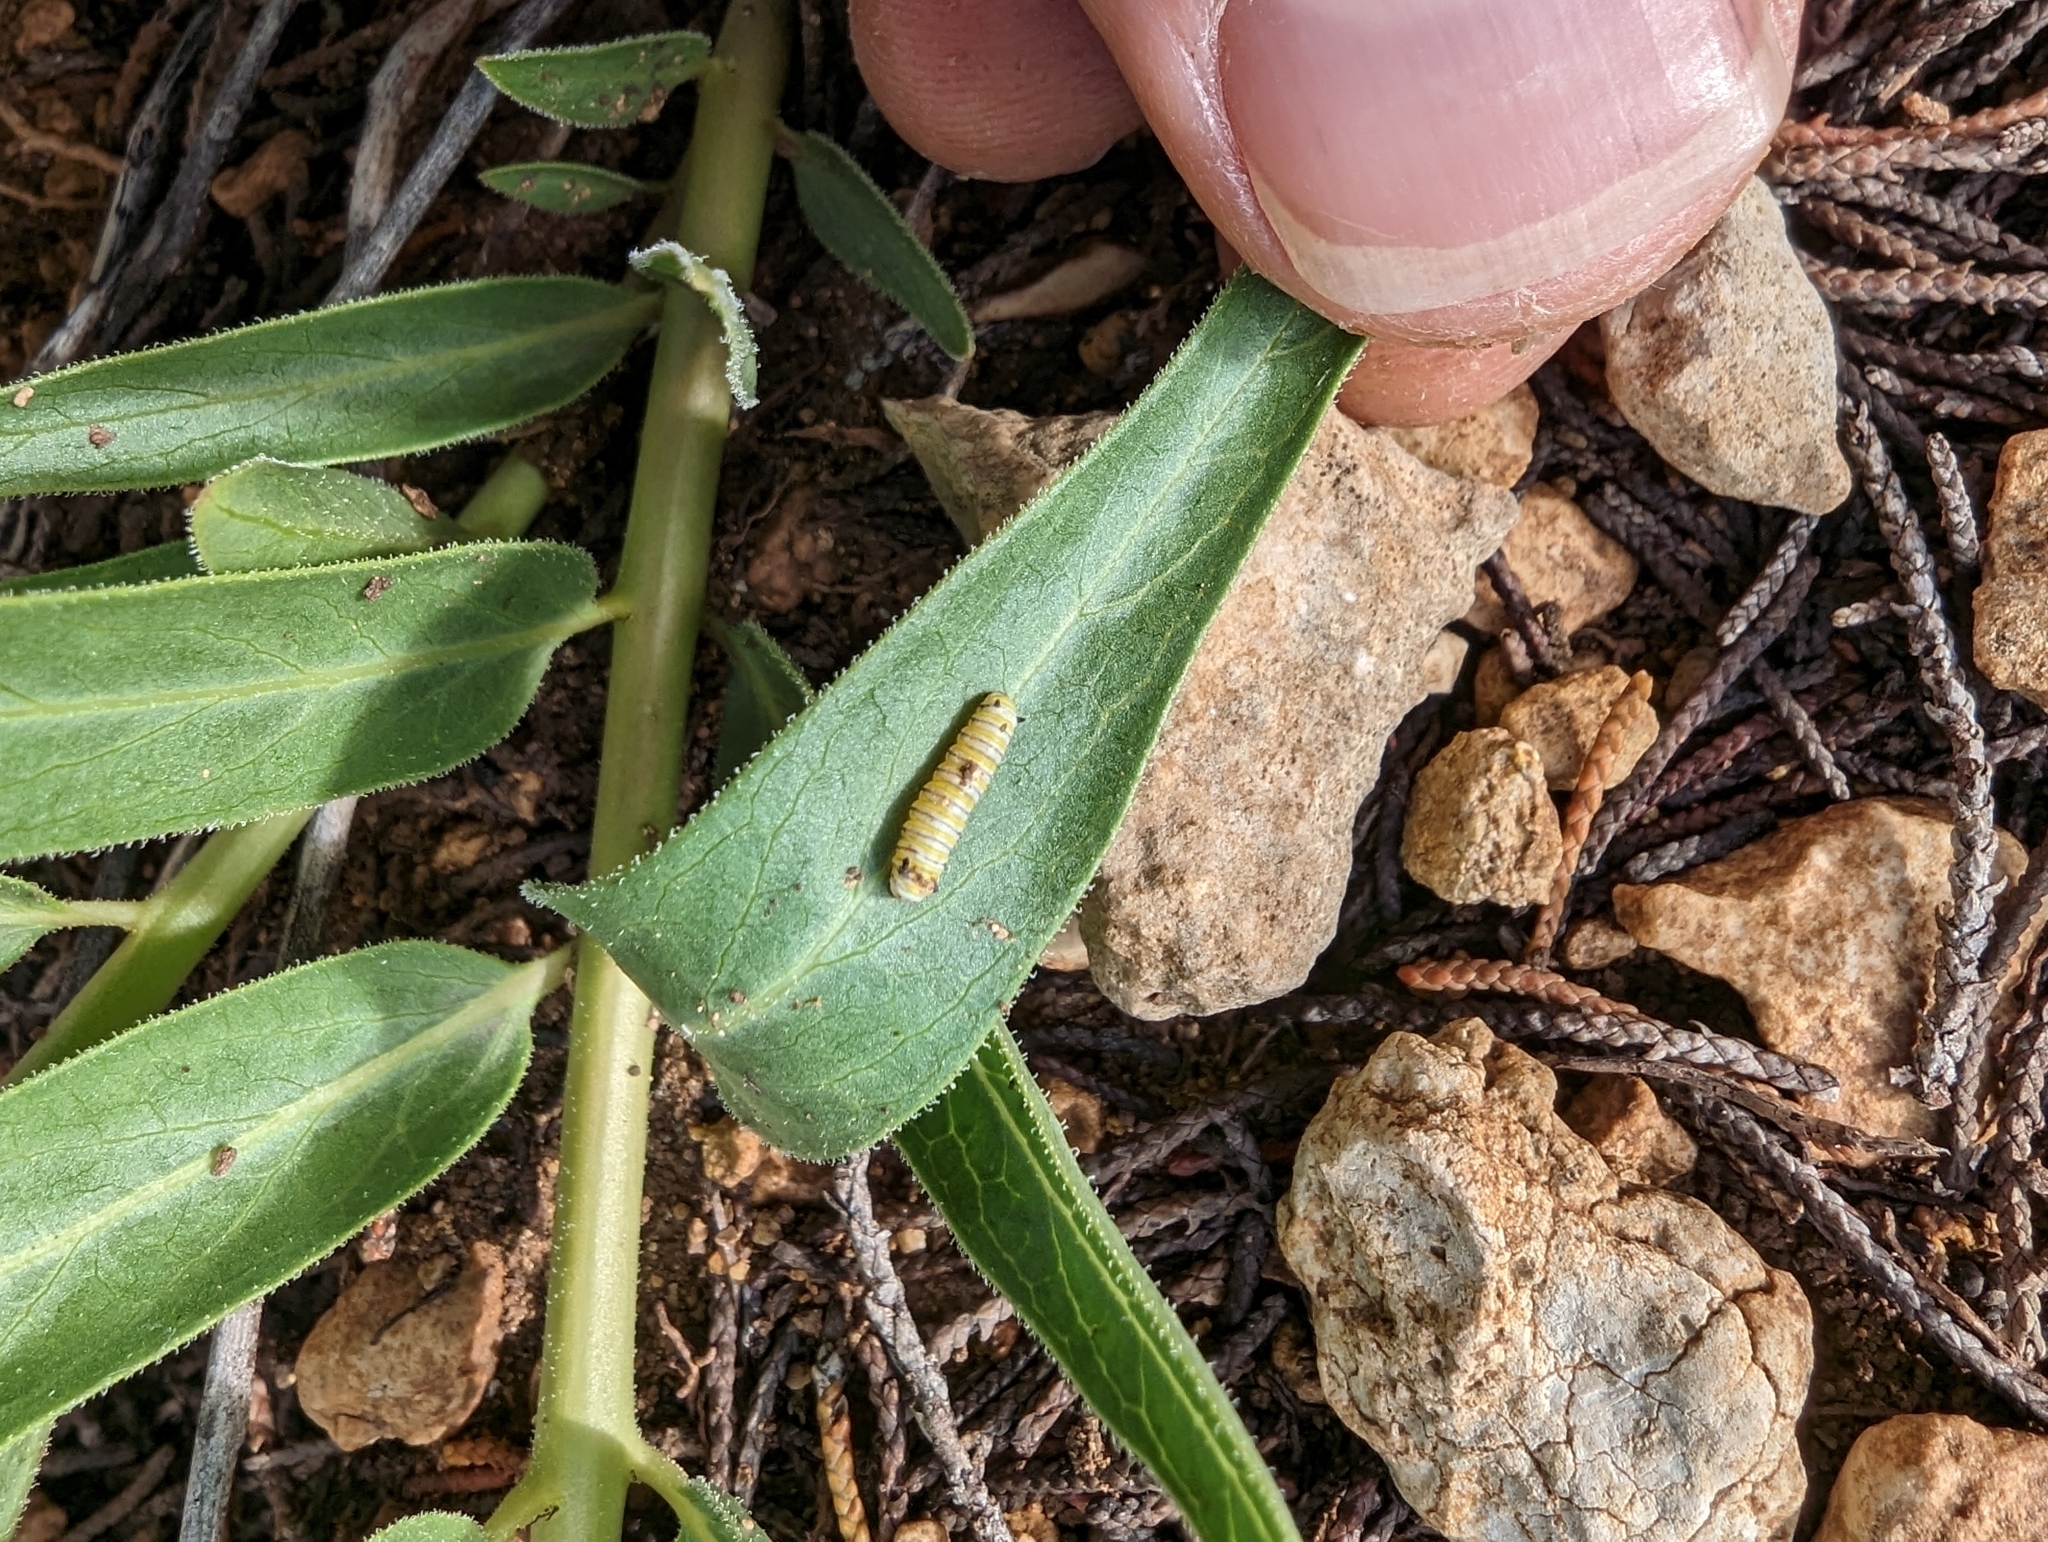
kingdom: Plantae
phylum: Tracheophyta
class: Magnoliopsida
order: Gentianales
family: Apocynaceae
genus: Asclepias
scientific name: Asclepias asperula
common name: Antelope horns
